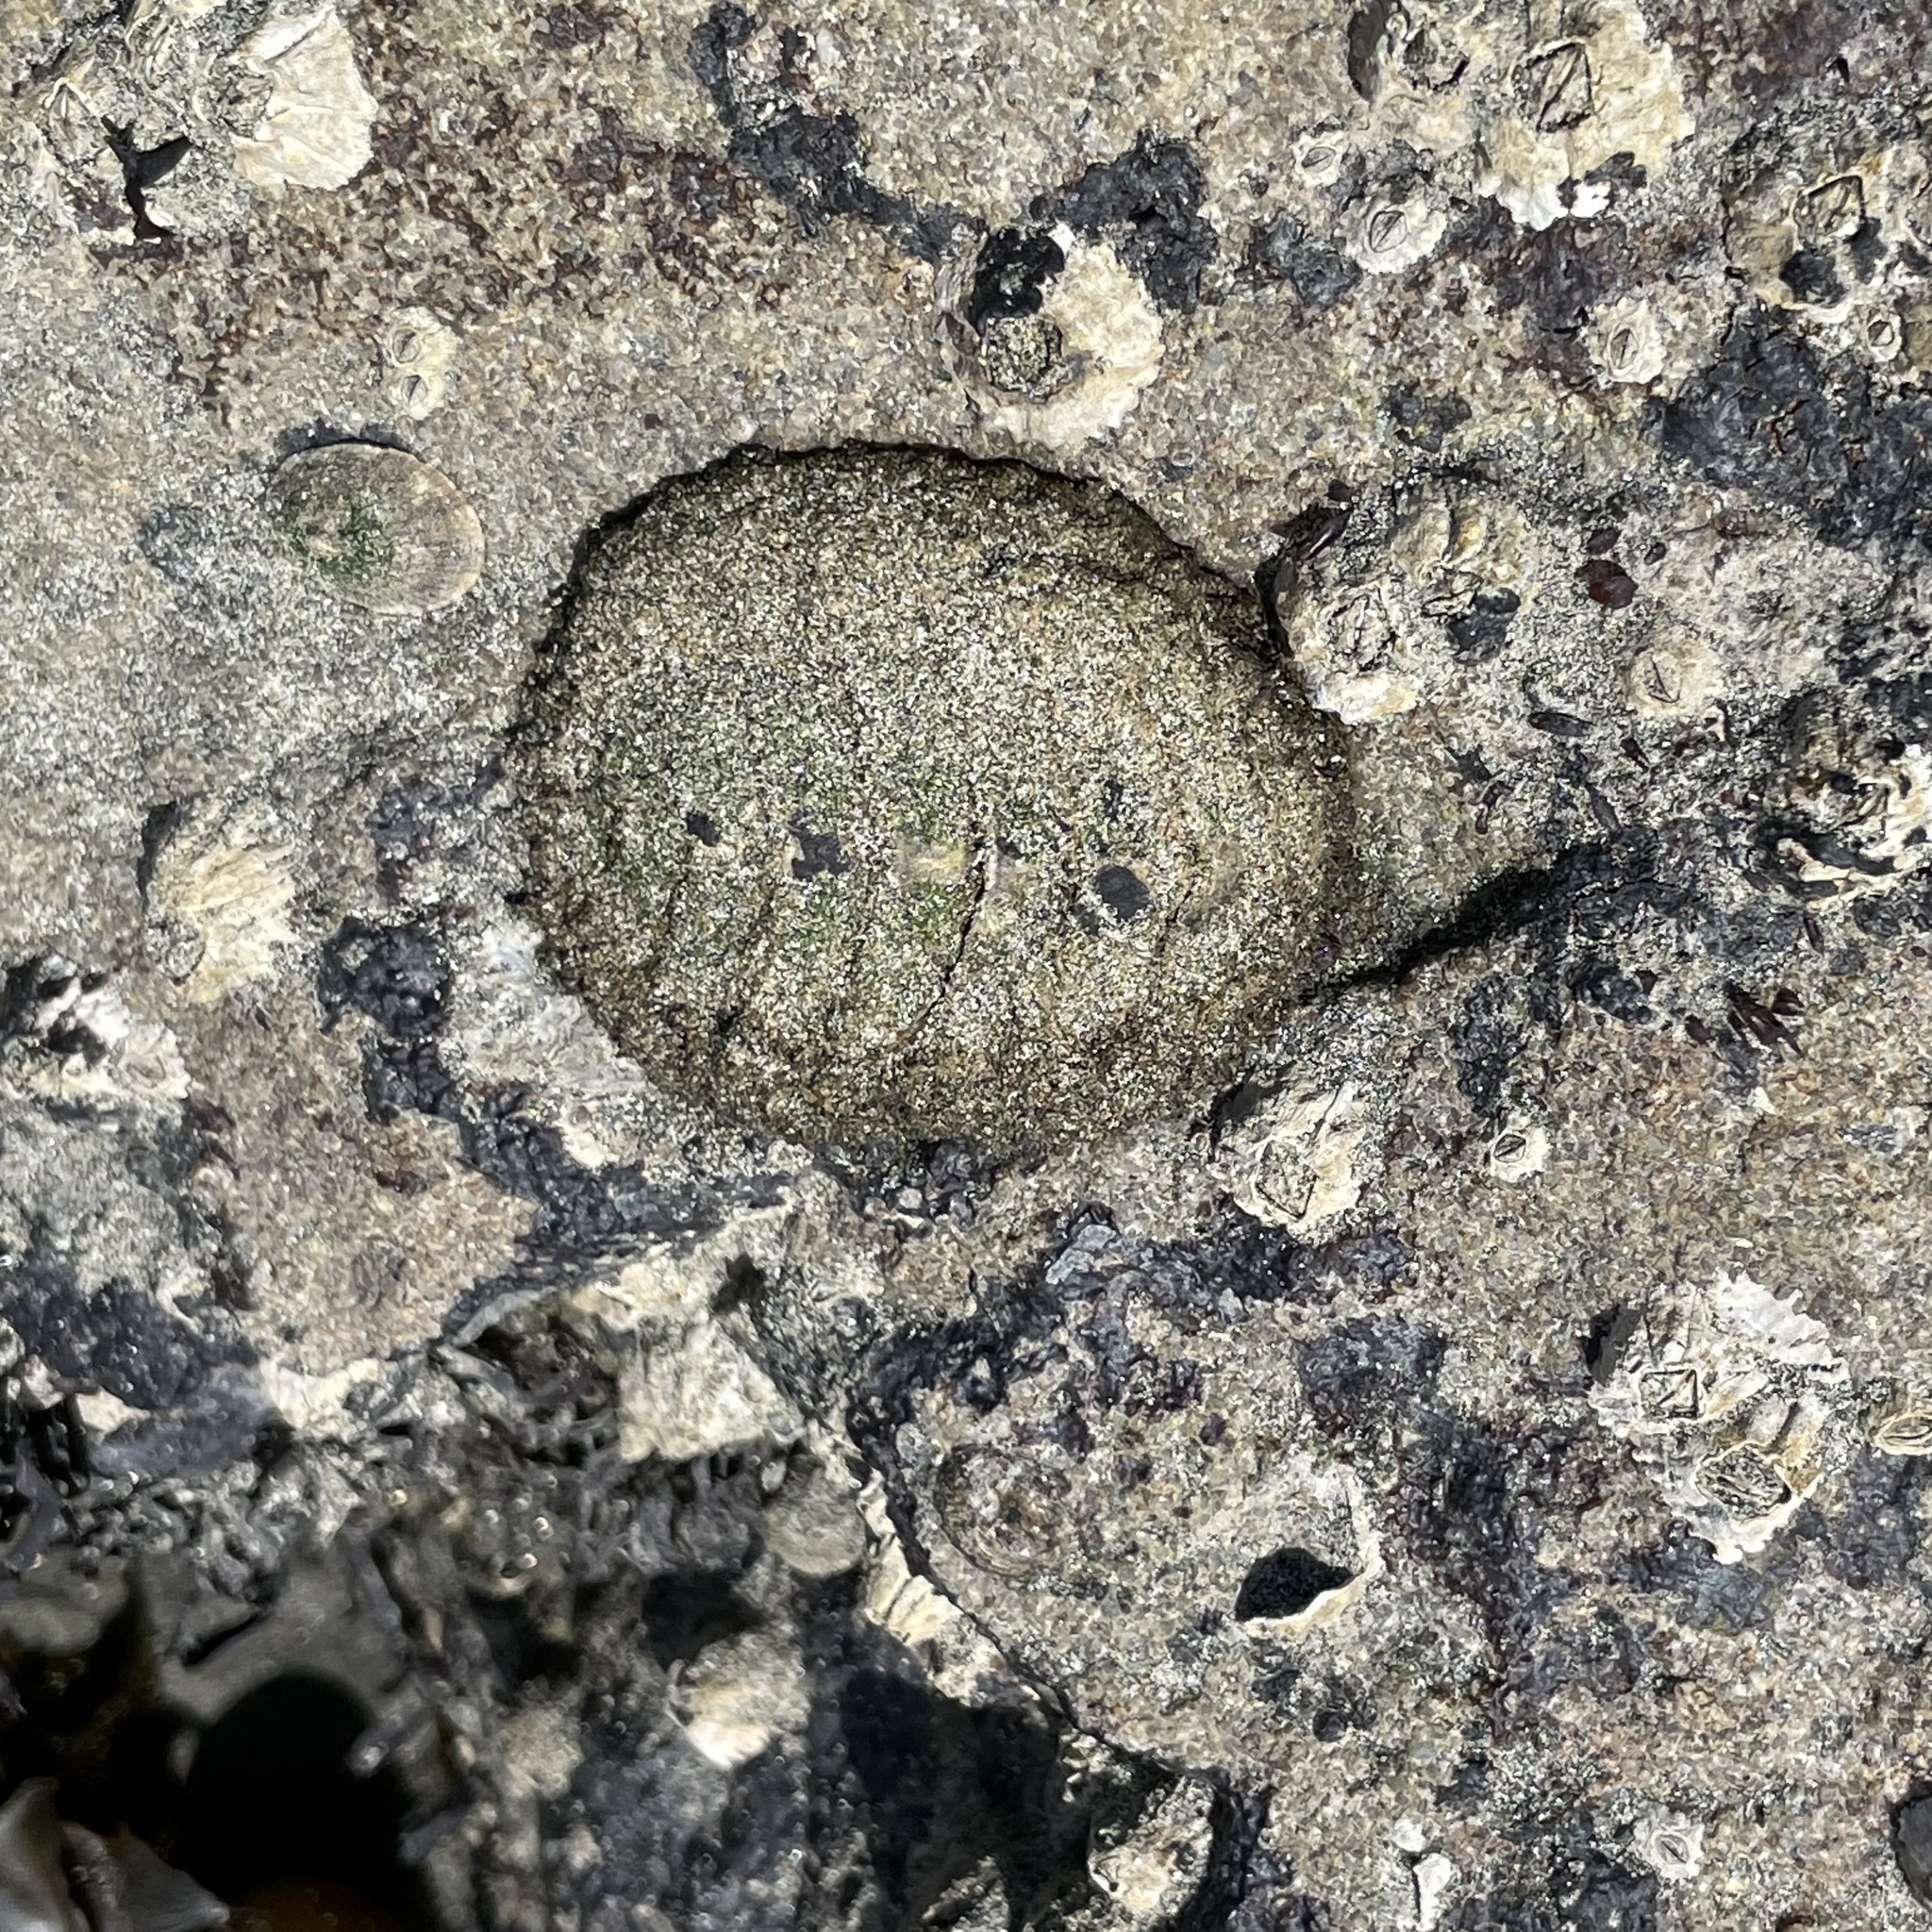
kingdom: Animalia
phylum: Mollusca
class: Polyplacophora
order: Chitonida
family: Mopaliidae
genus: Mopalia
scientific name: Mopalia muscosa
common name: Mossy chiton
